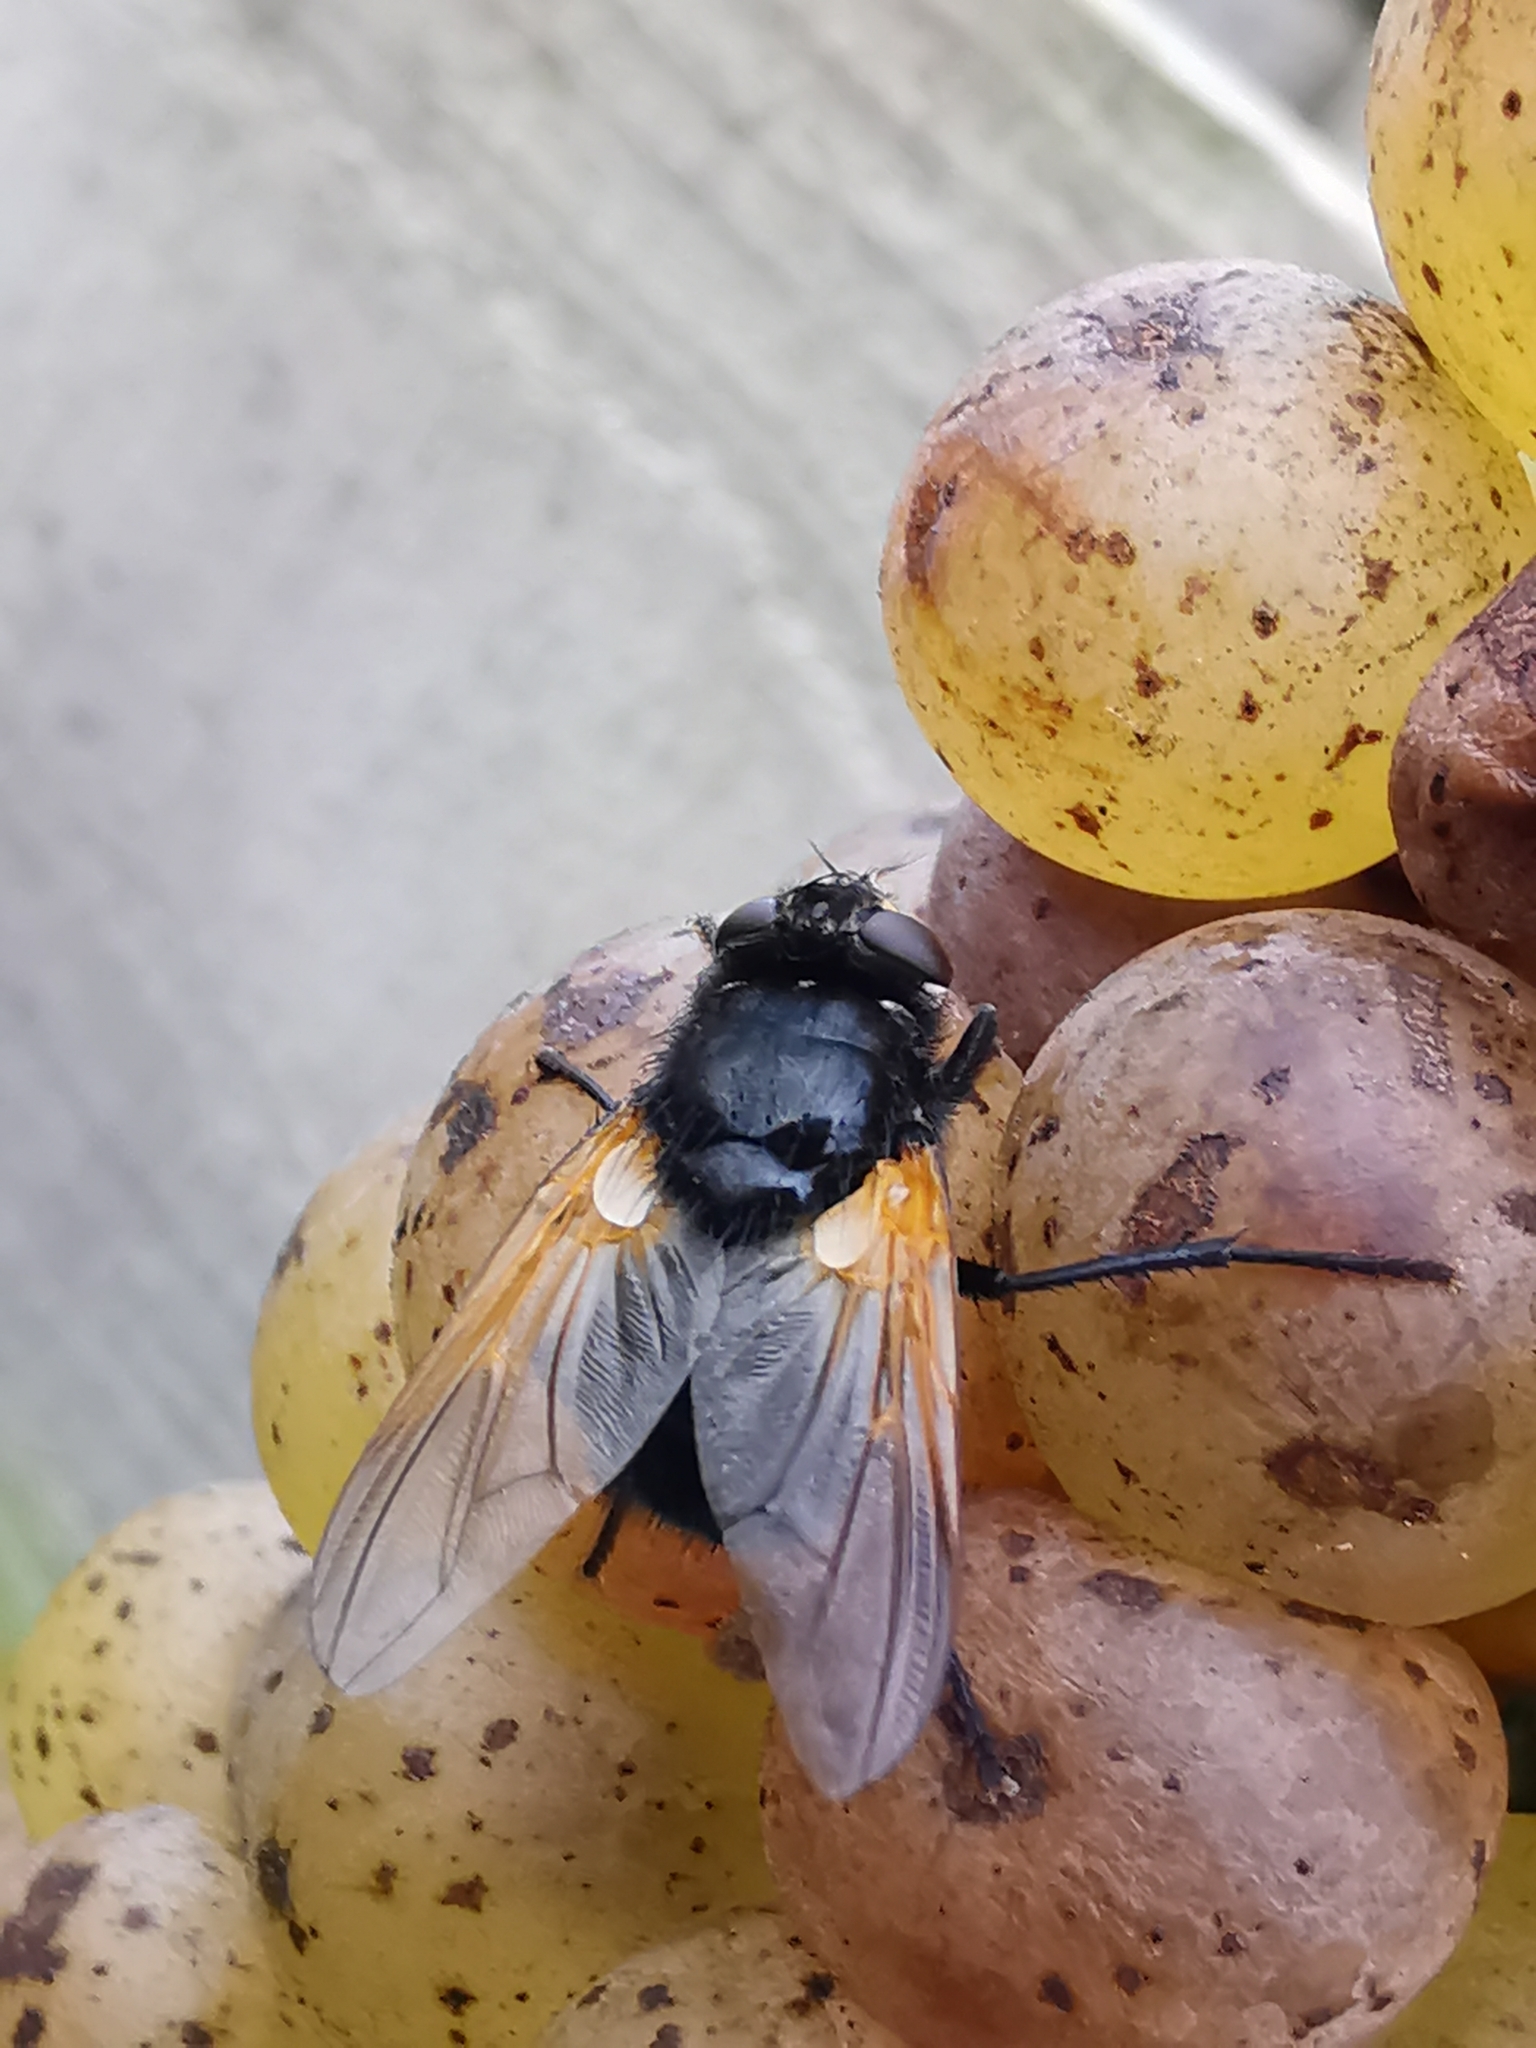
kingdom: Animalia
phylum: Arthropoda
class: Insecta
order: Diptera
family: Muscidae
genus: Mesembrina
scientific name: Mesembrina meridiana
